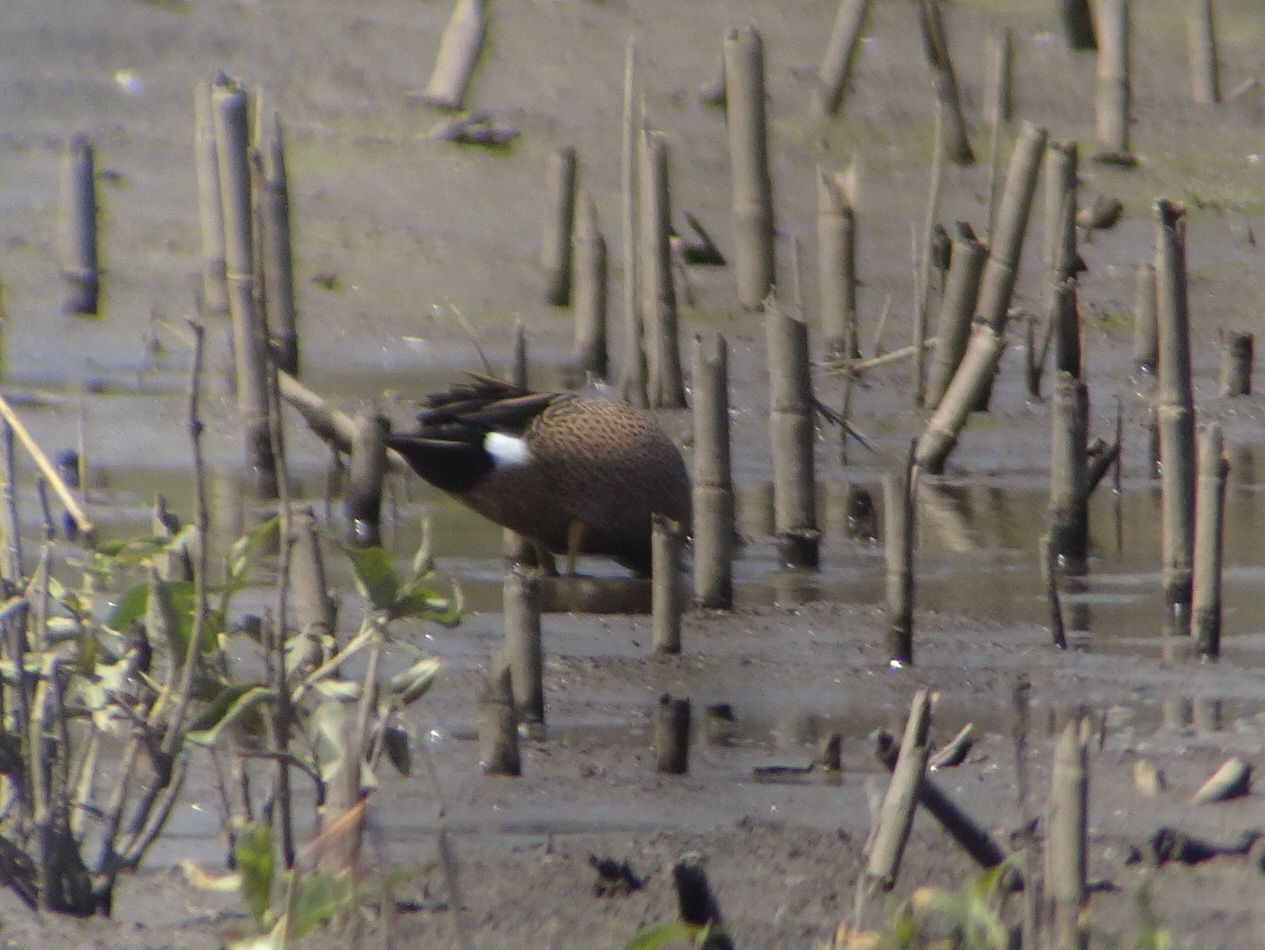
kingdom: Animalia
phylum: Chordata
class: Aves
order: Anseriformes
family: Anatidae
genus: Spatula
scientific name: Spatula discors
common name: Blue-winged teal
